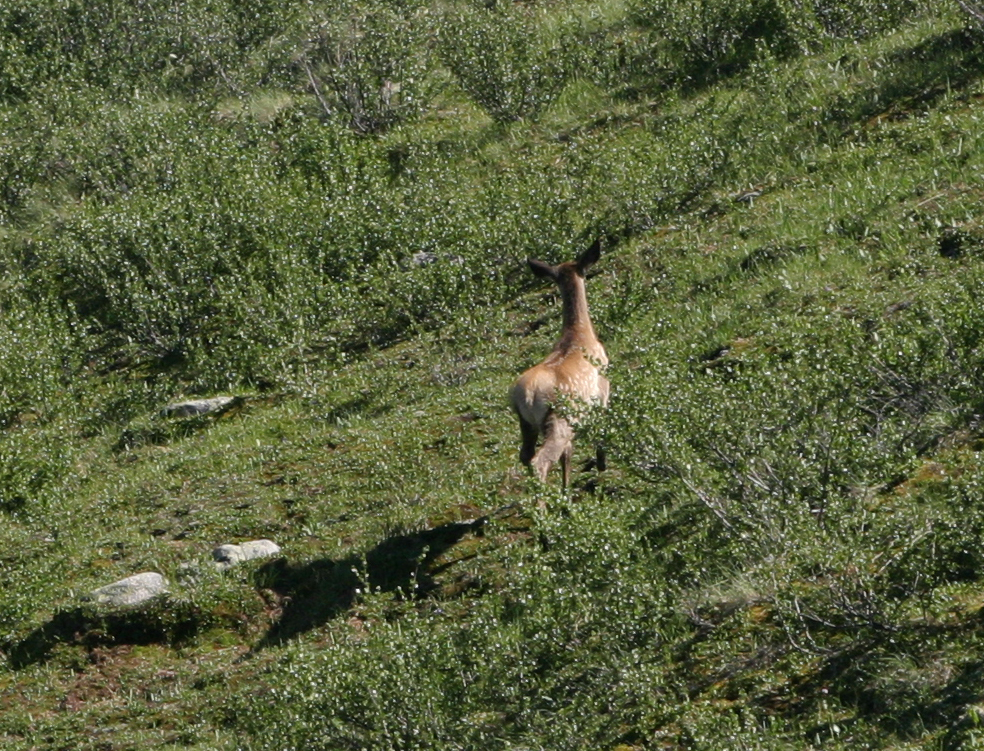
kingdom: Animalia
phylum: Chordata
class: Mammalia
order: Artiodactyla
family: Cervidae
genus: Cervus
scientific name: Cervus elaphus
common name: Red deer
